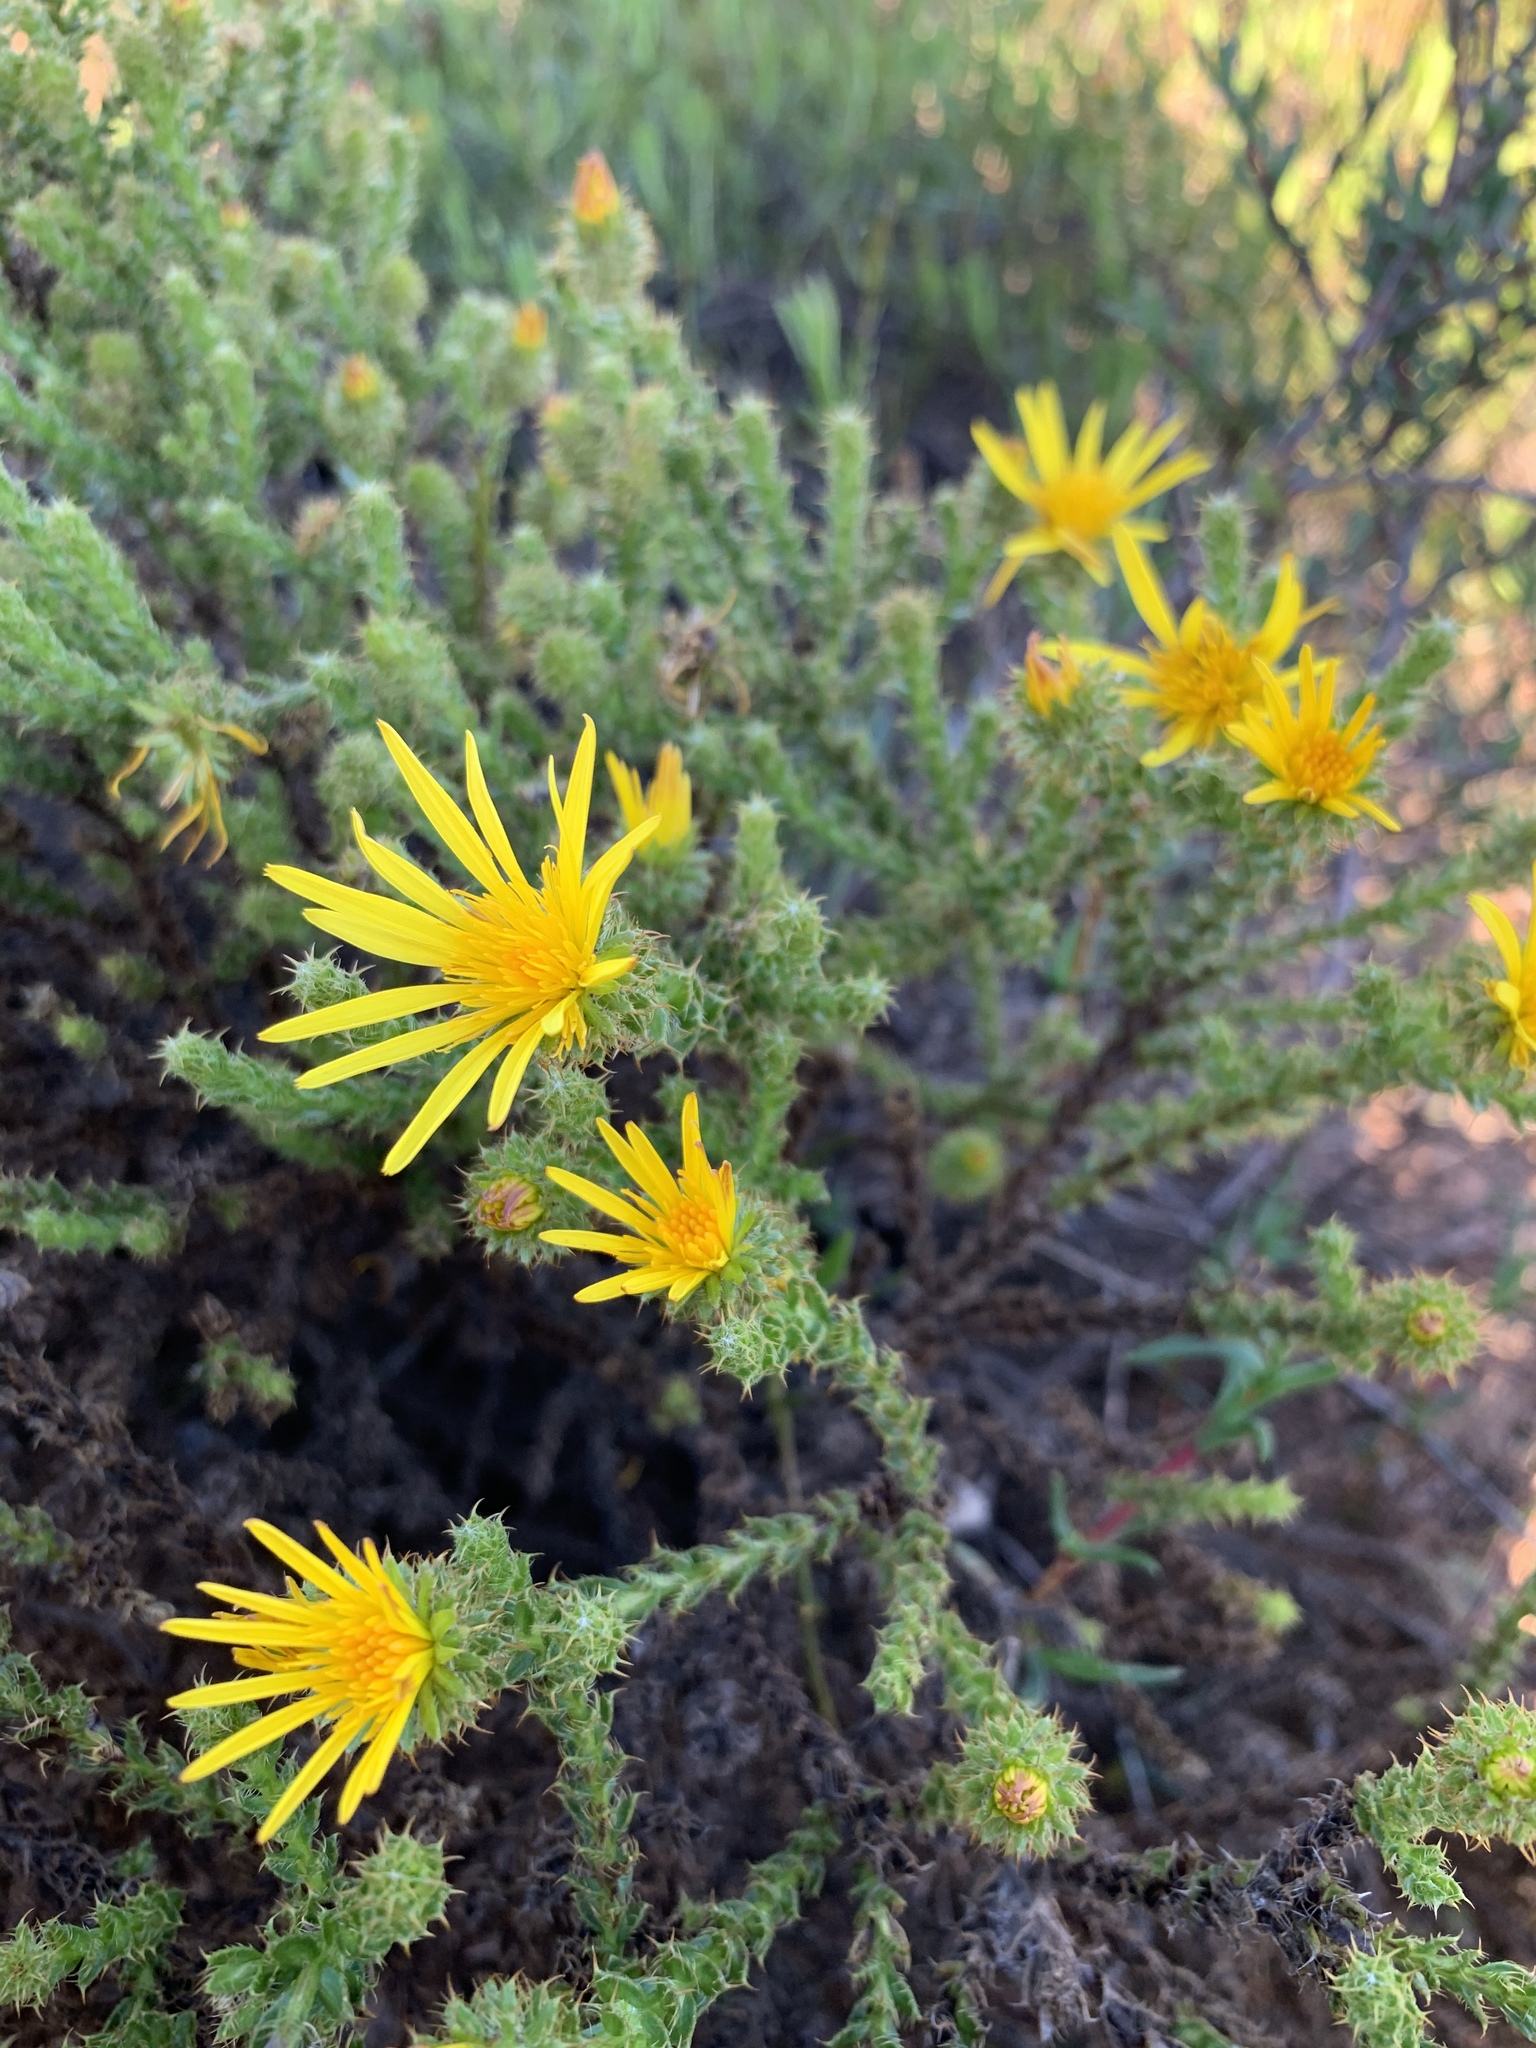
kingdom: Plantae
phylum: Tracheophyta
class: Magnoliopsida
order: Asterales
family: Asteraceae
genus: Cullumia
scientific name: Cullumia reticulata
